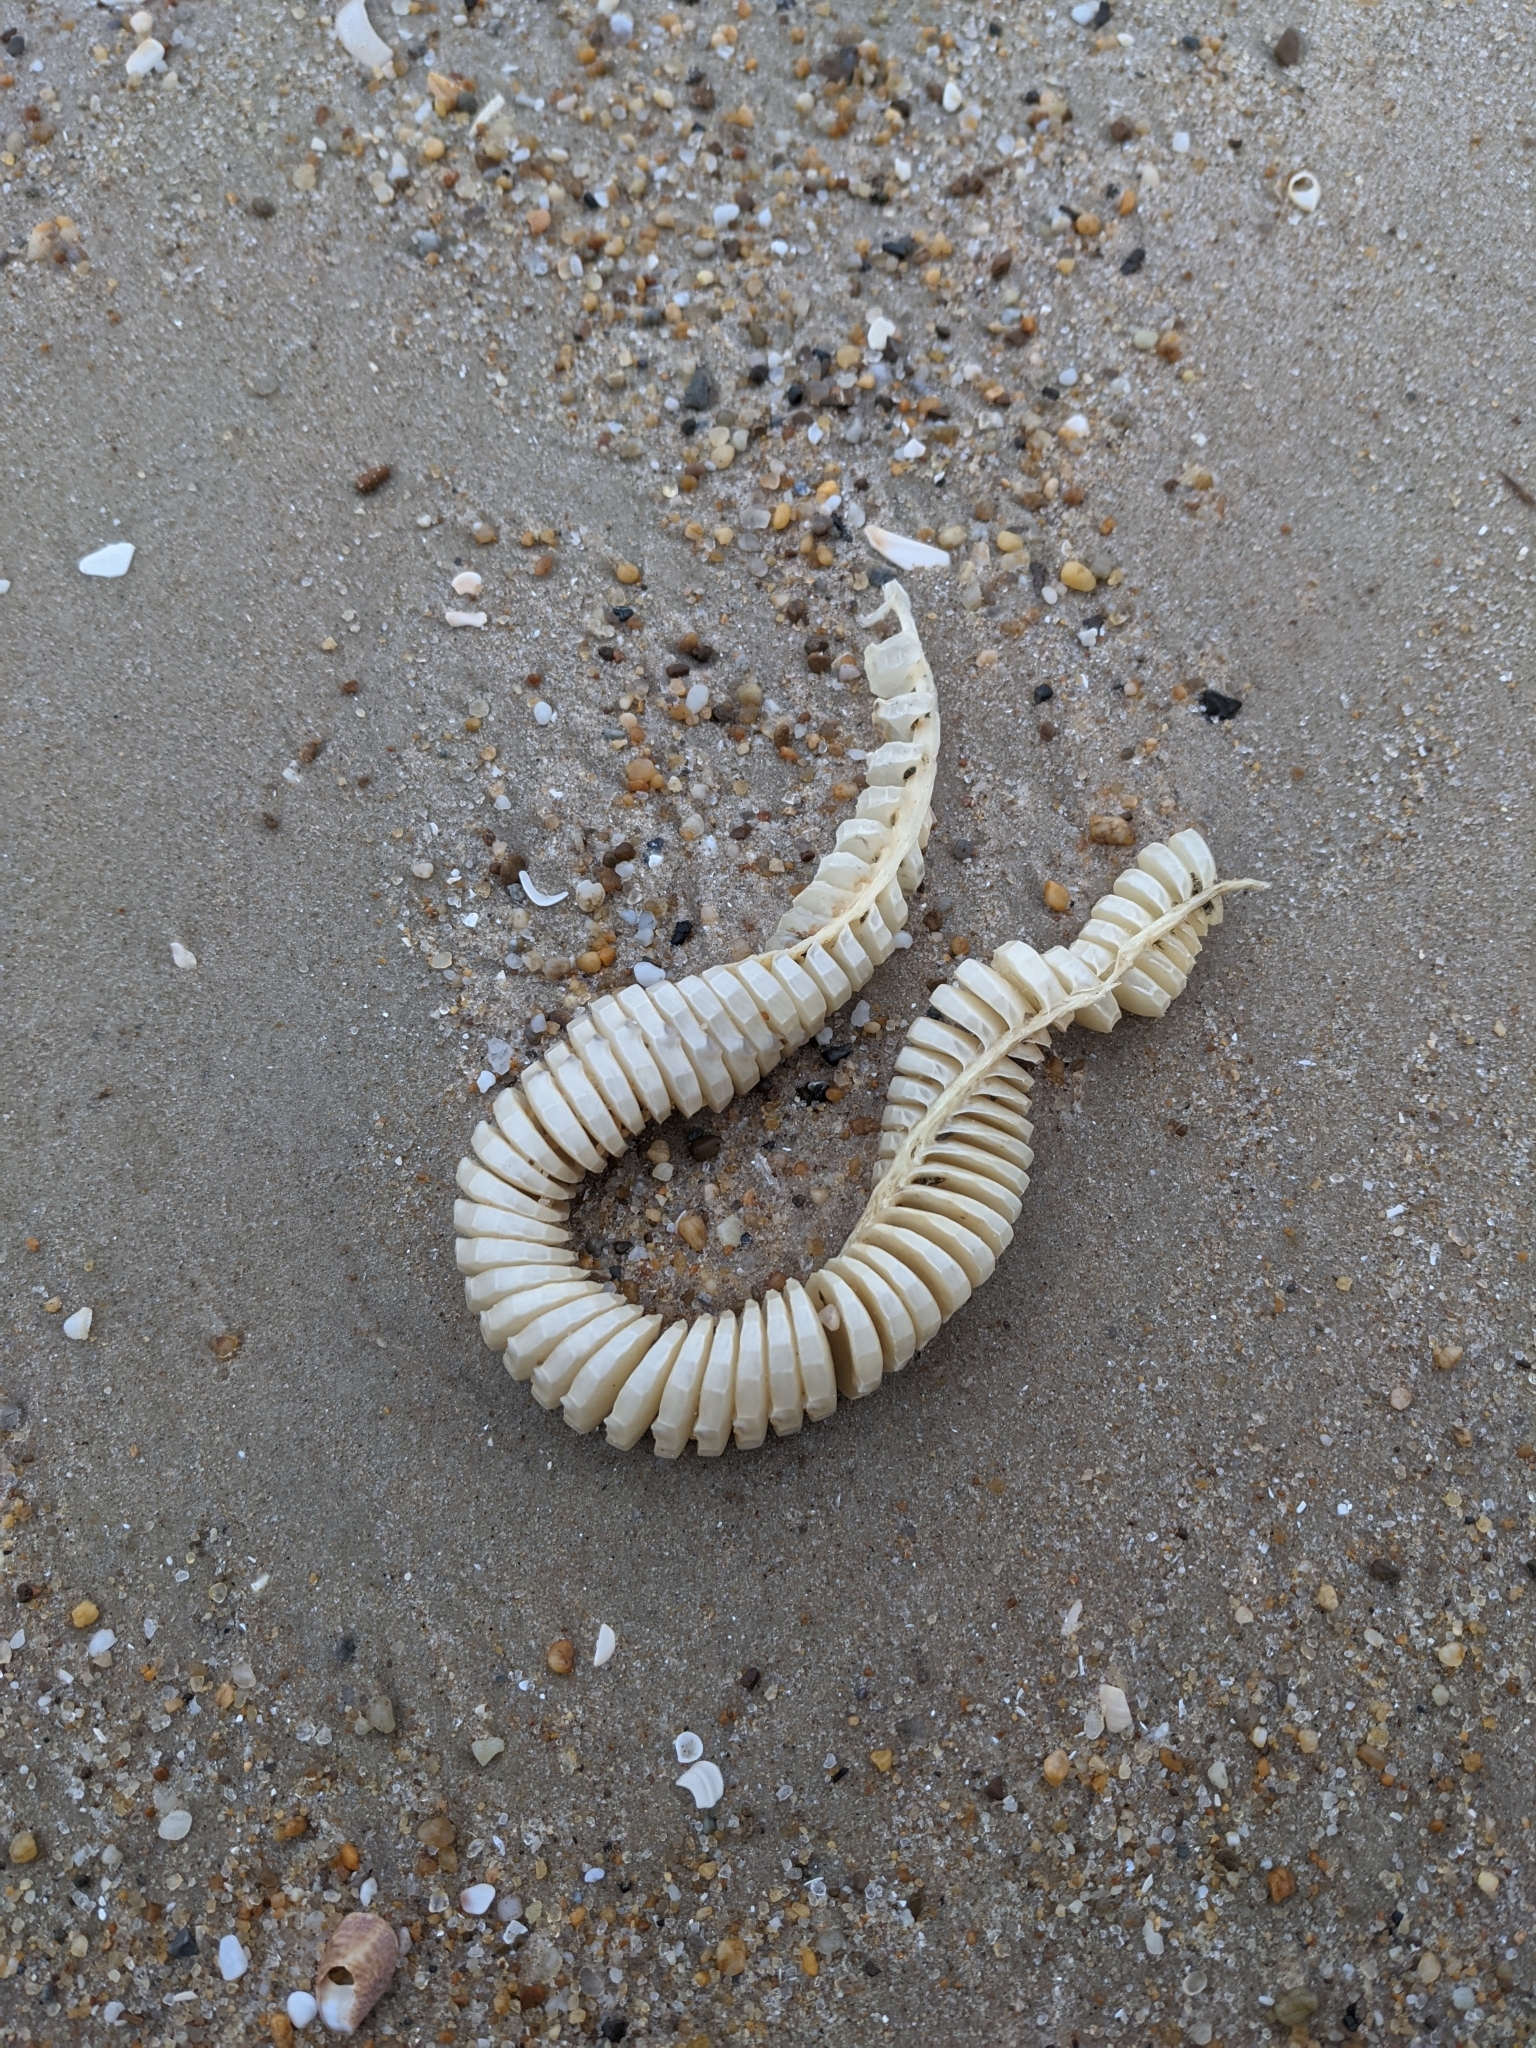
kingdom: Animalia
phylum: Mollusca
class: Gastropoda
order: Neogastropoda
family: Busyconidae
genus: Busycon
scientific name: Busycon carica
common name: Knobbed whelk
